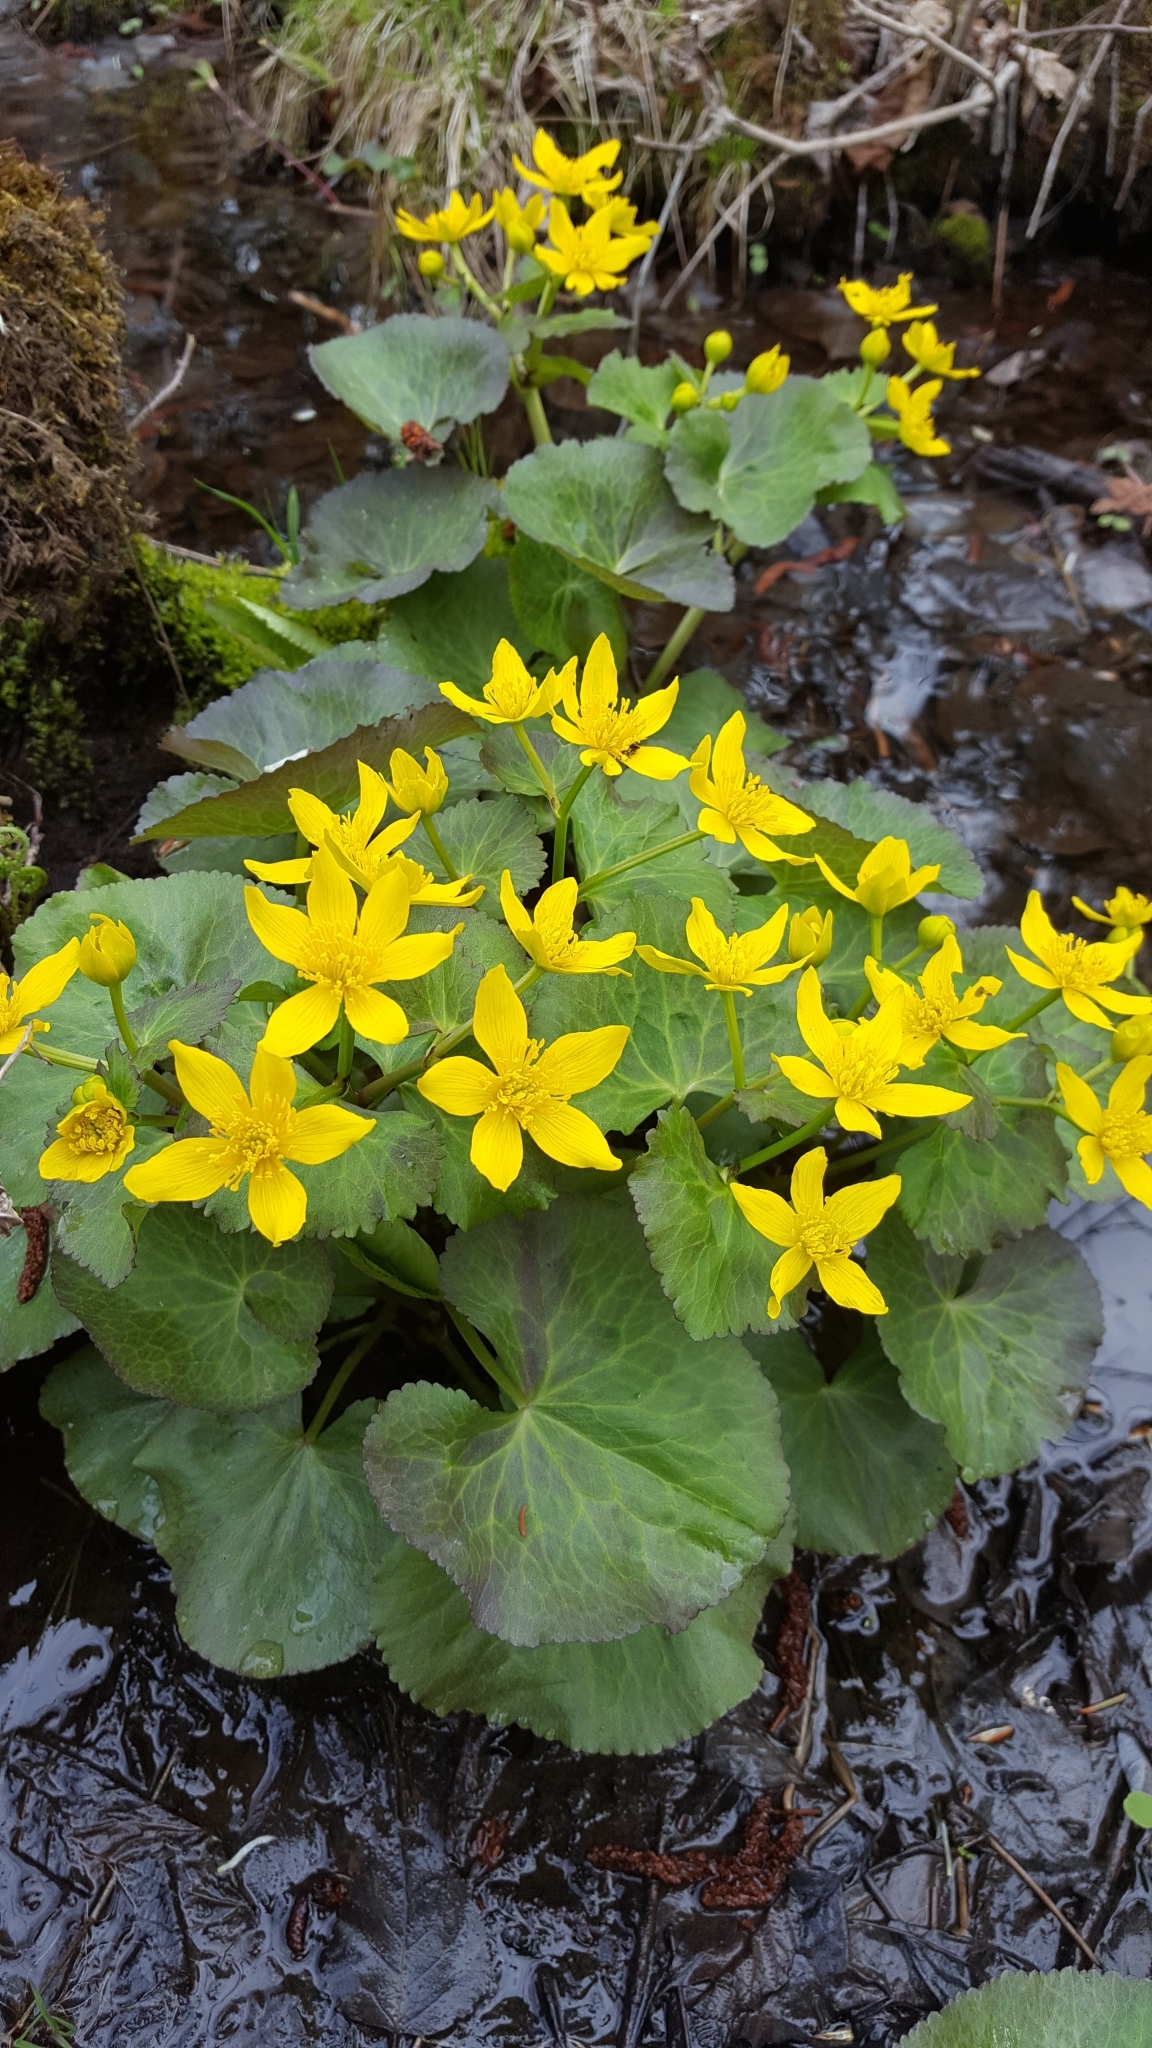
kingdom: Plantae
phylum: Tracheophyta
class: Magnoliopsida
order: Ranunculales
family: Ranunculaceae
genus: Caltha
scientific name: Caltha palustris
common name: Marsh marigold
